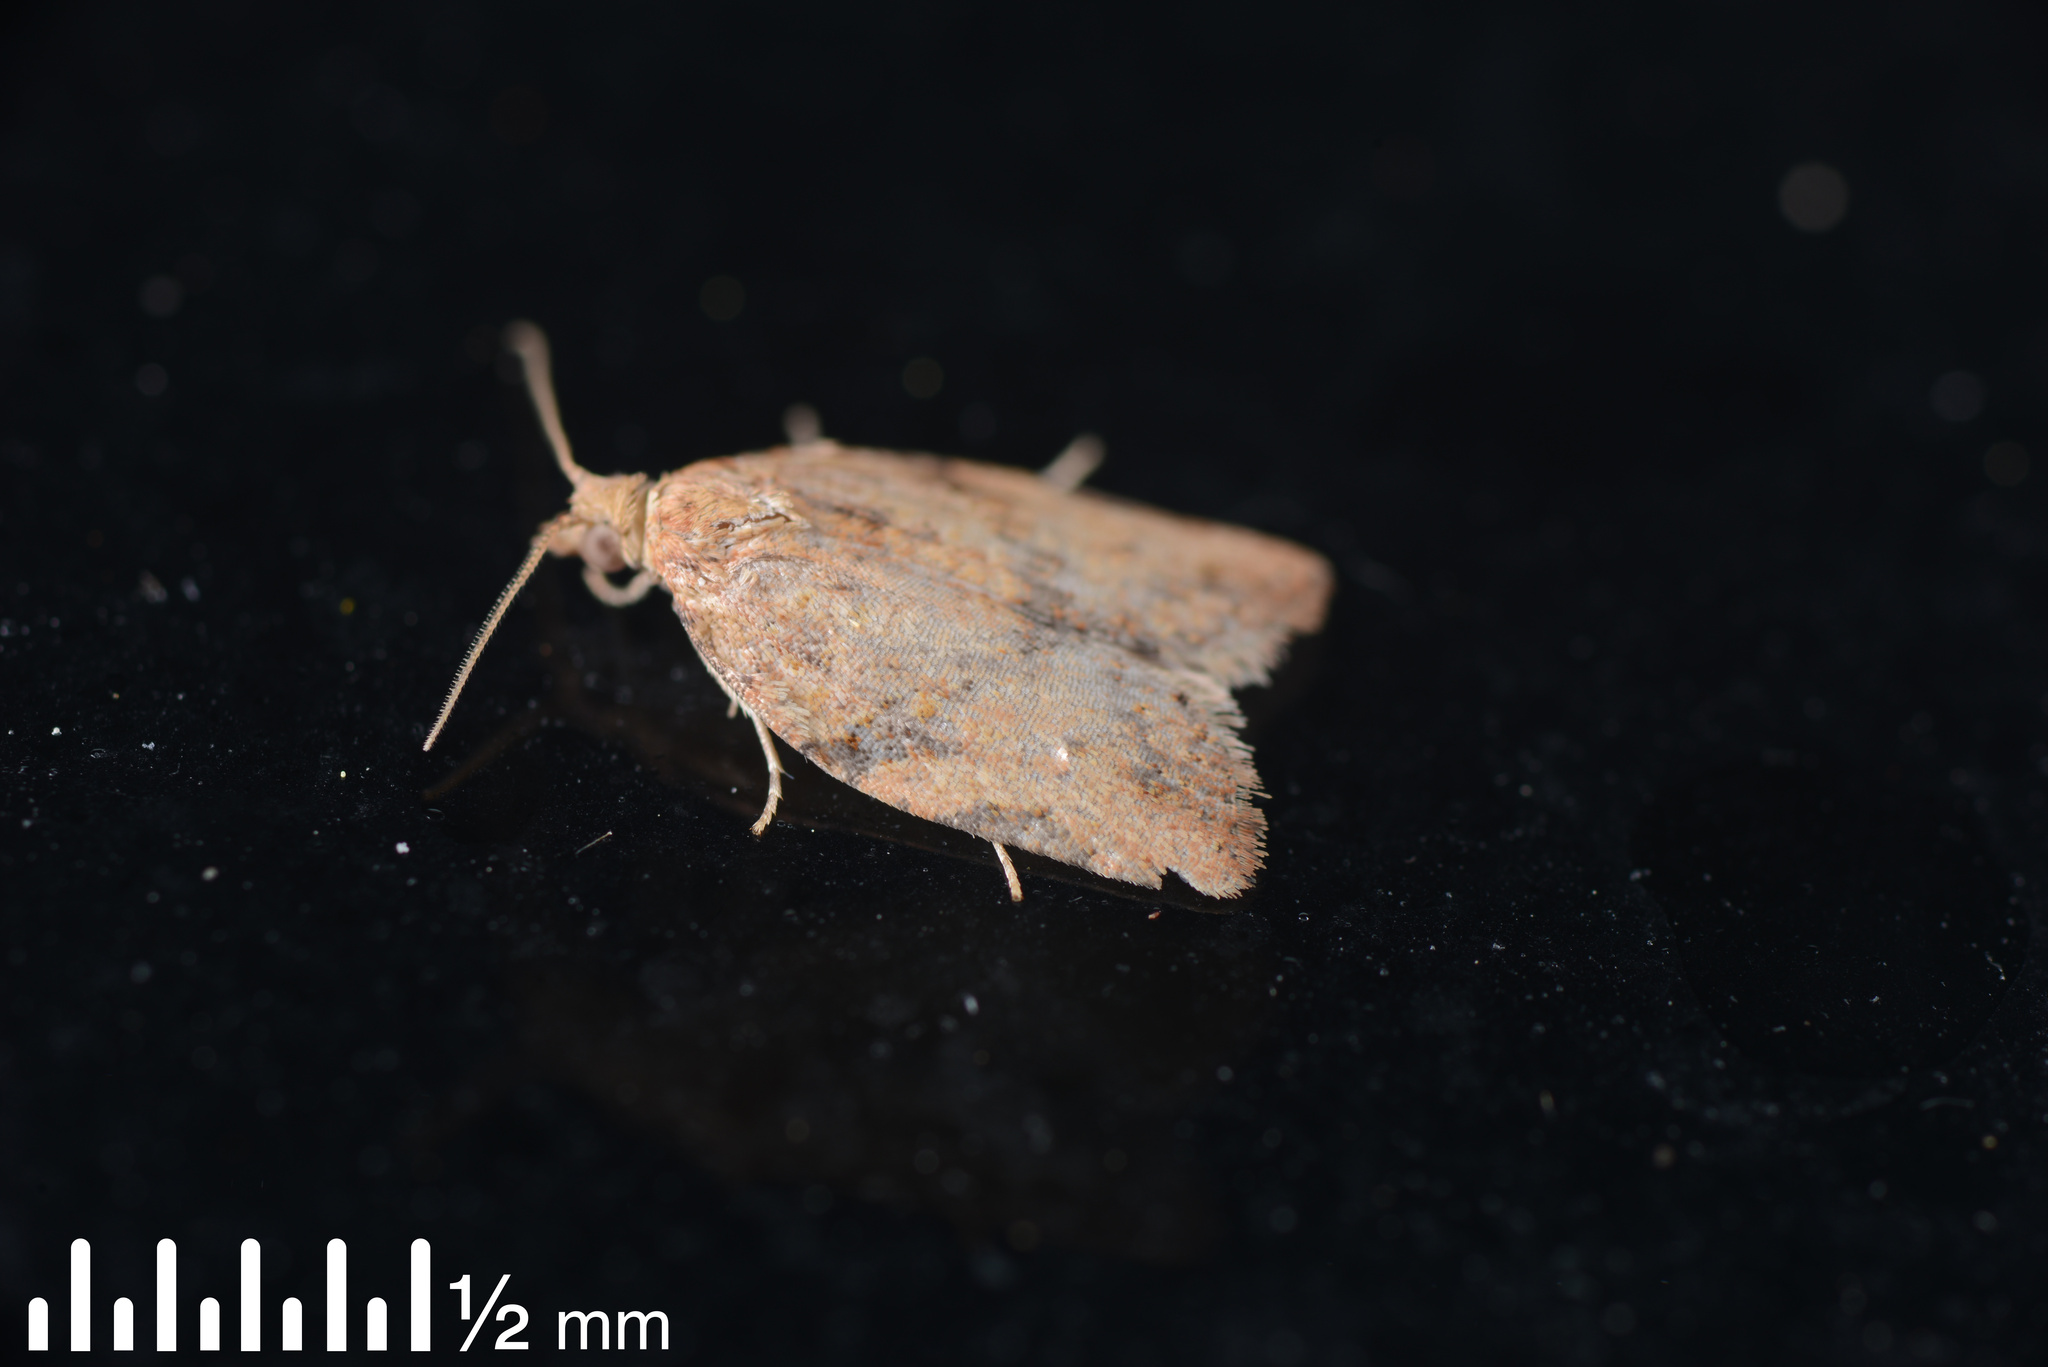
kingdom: Animalia
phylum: Arthropoda
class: Insecta
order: Lepidoptera
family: Tortricidae
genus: Epiphyas
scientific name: Epiphyas postvittana
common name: Light brown apple moth
